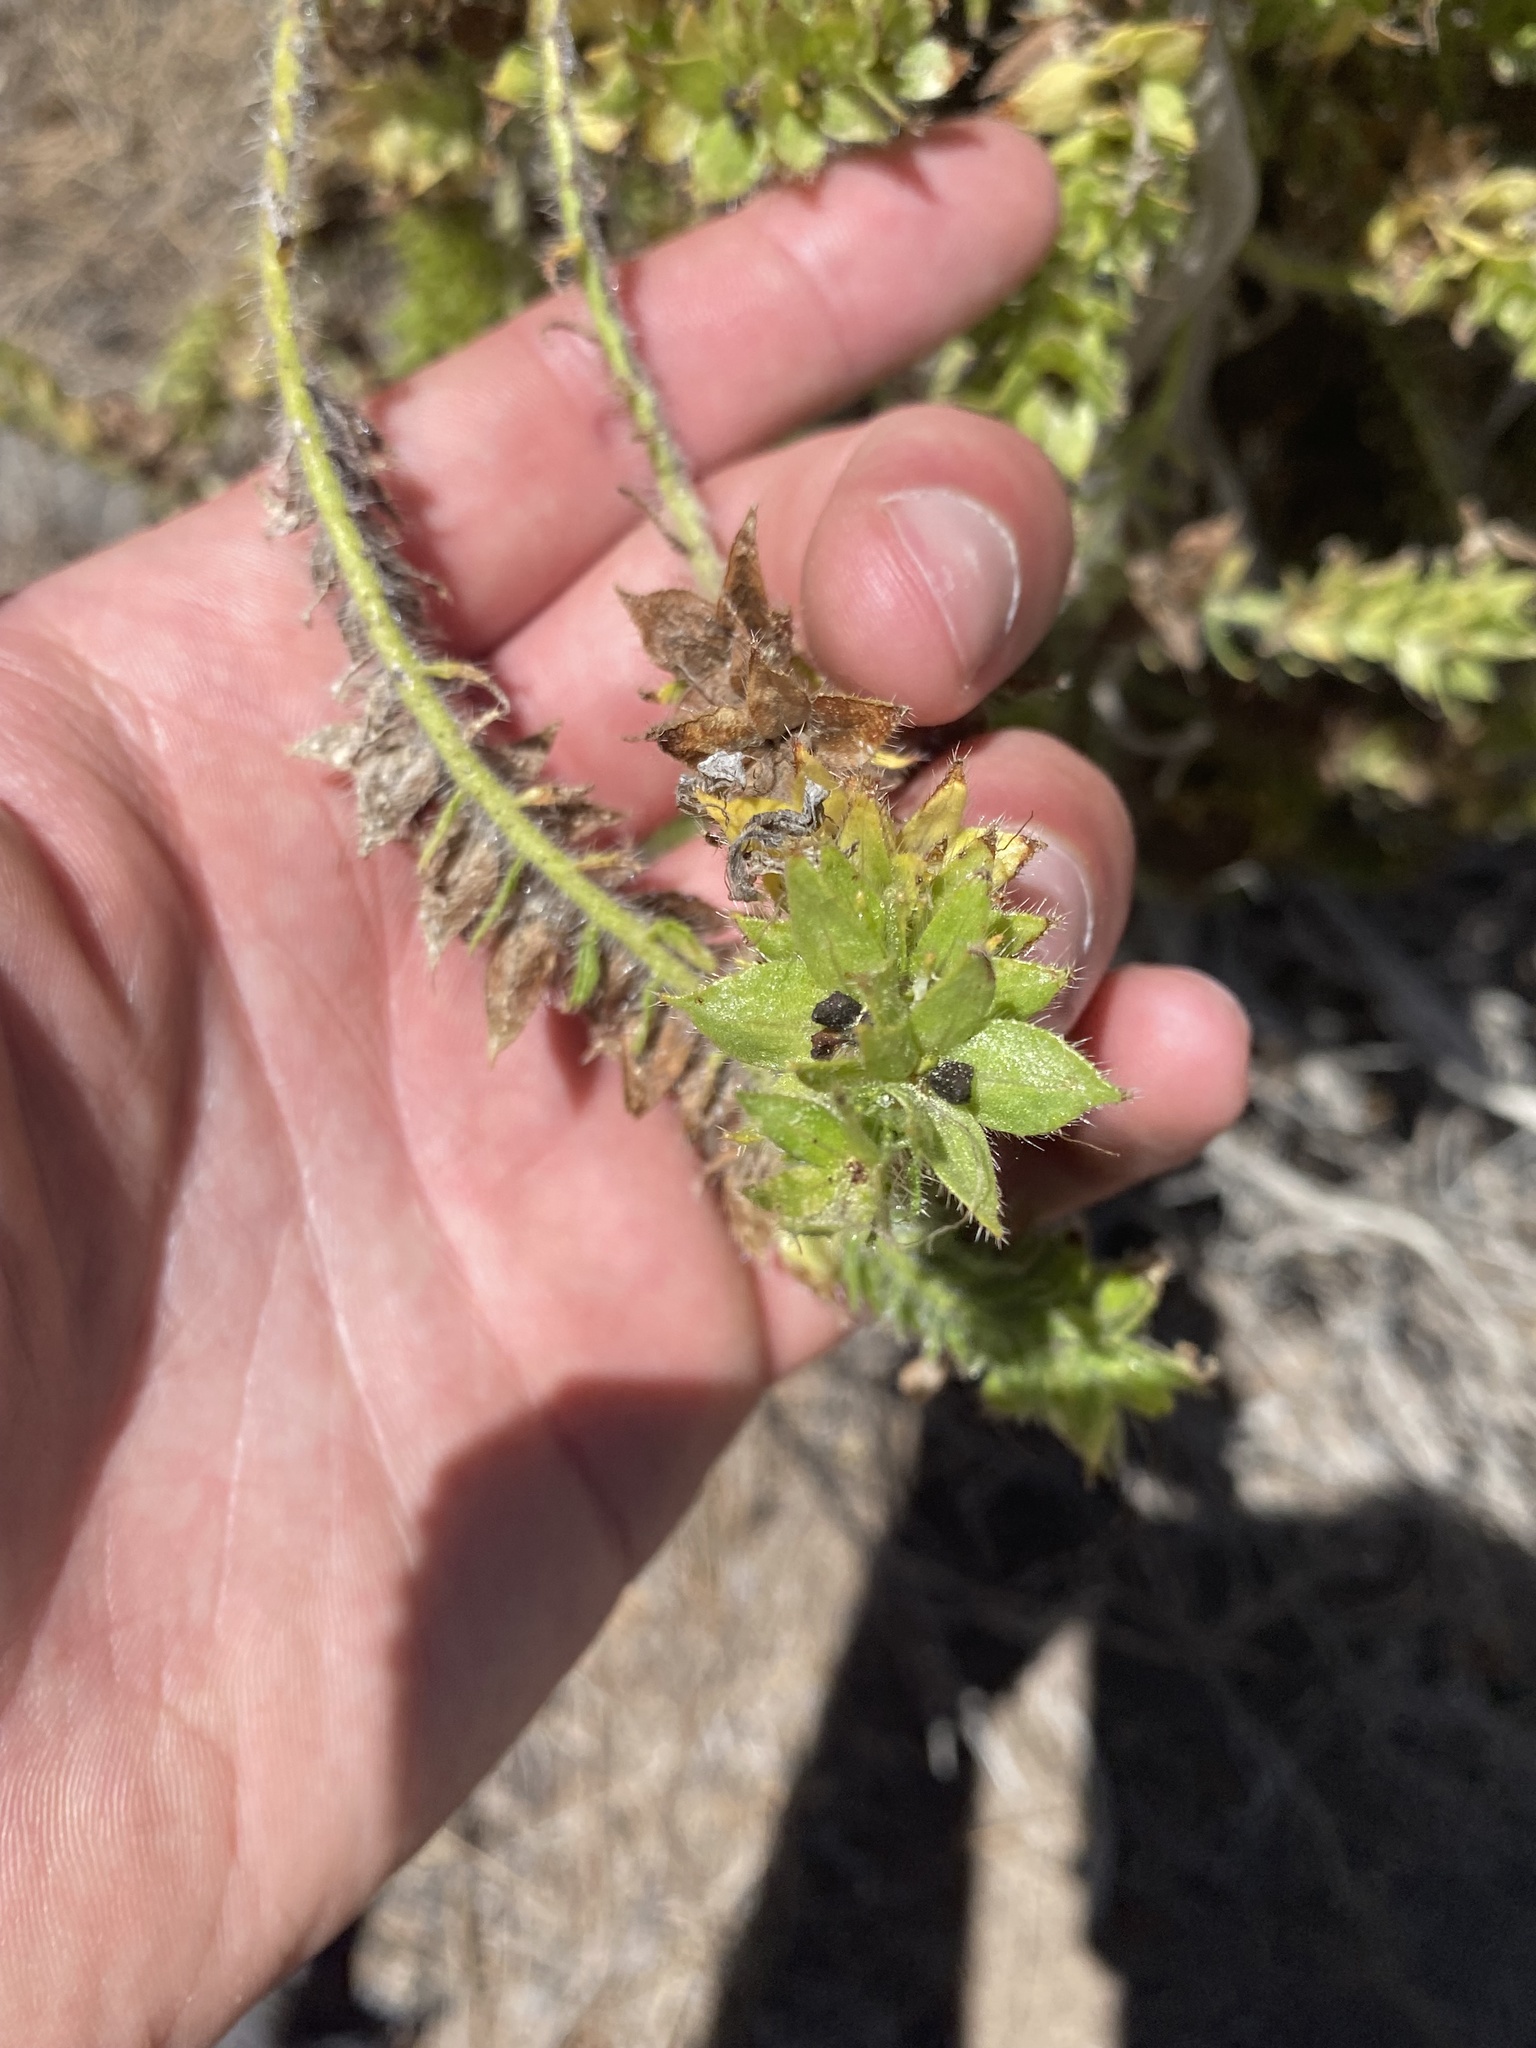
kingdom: Plantae
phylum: Tracheophyta
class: Magnoliopsida
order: Boraginales
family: Boraginaceae
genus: Echium
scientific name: Echium wildpretii
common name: Tower-of-jewels
